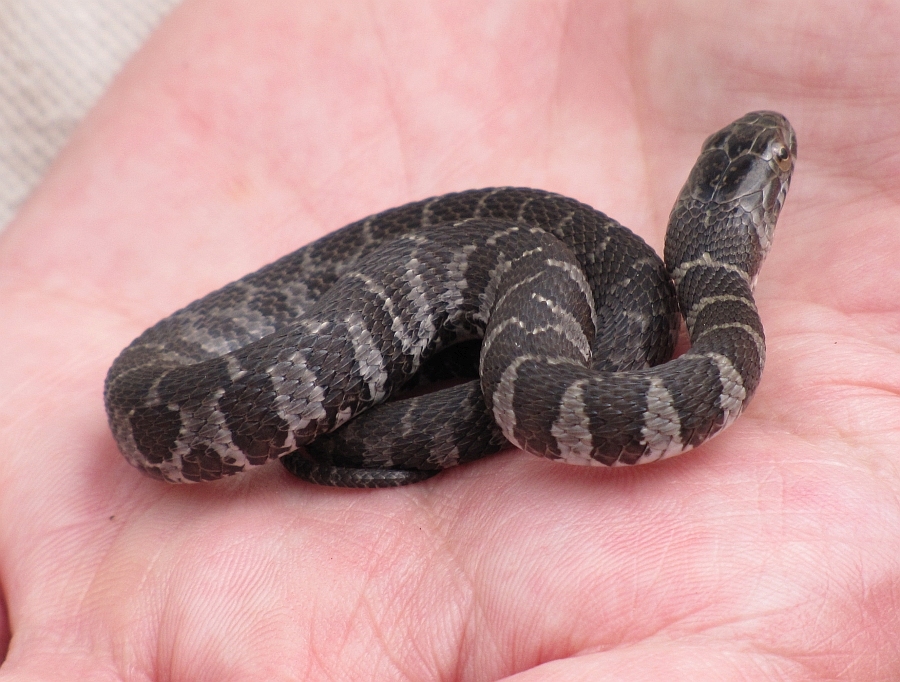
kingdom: Animalia
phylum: Chordata
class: Squamata
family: Colubridae
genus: Nerodia
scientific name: Nerodia sipedon
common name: Northern water snake
